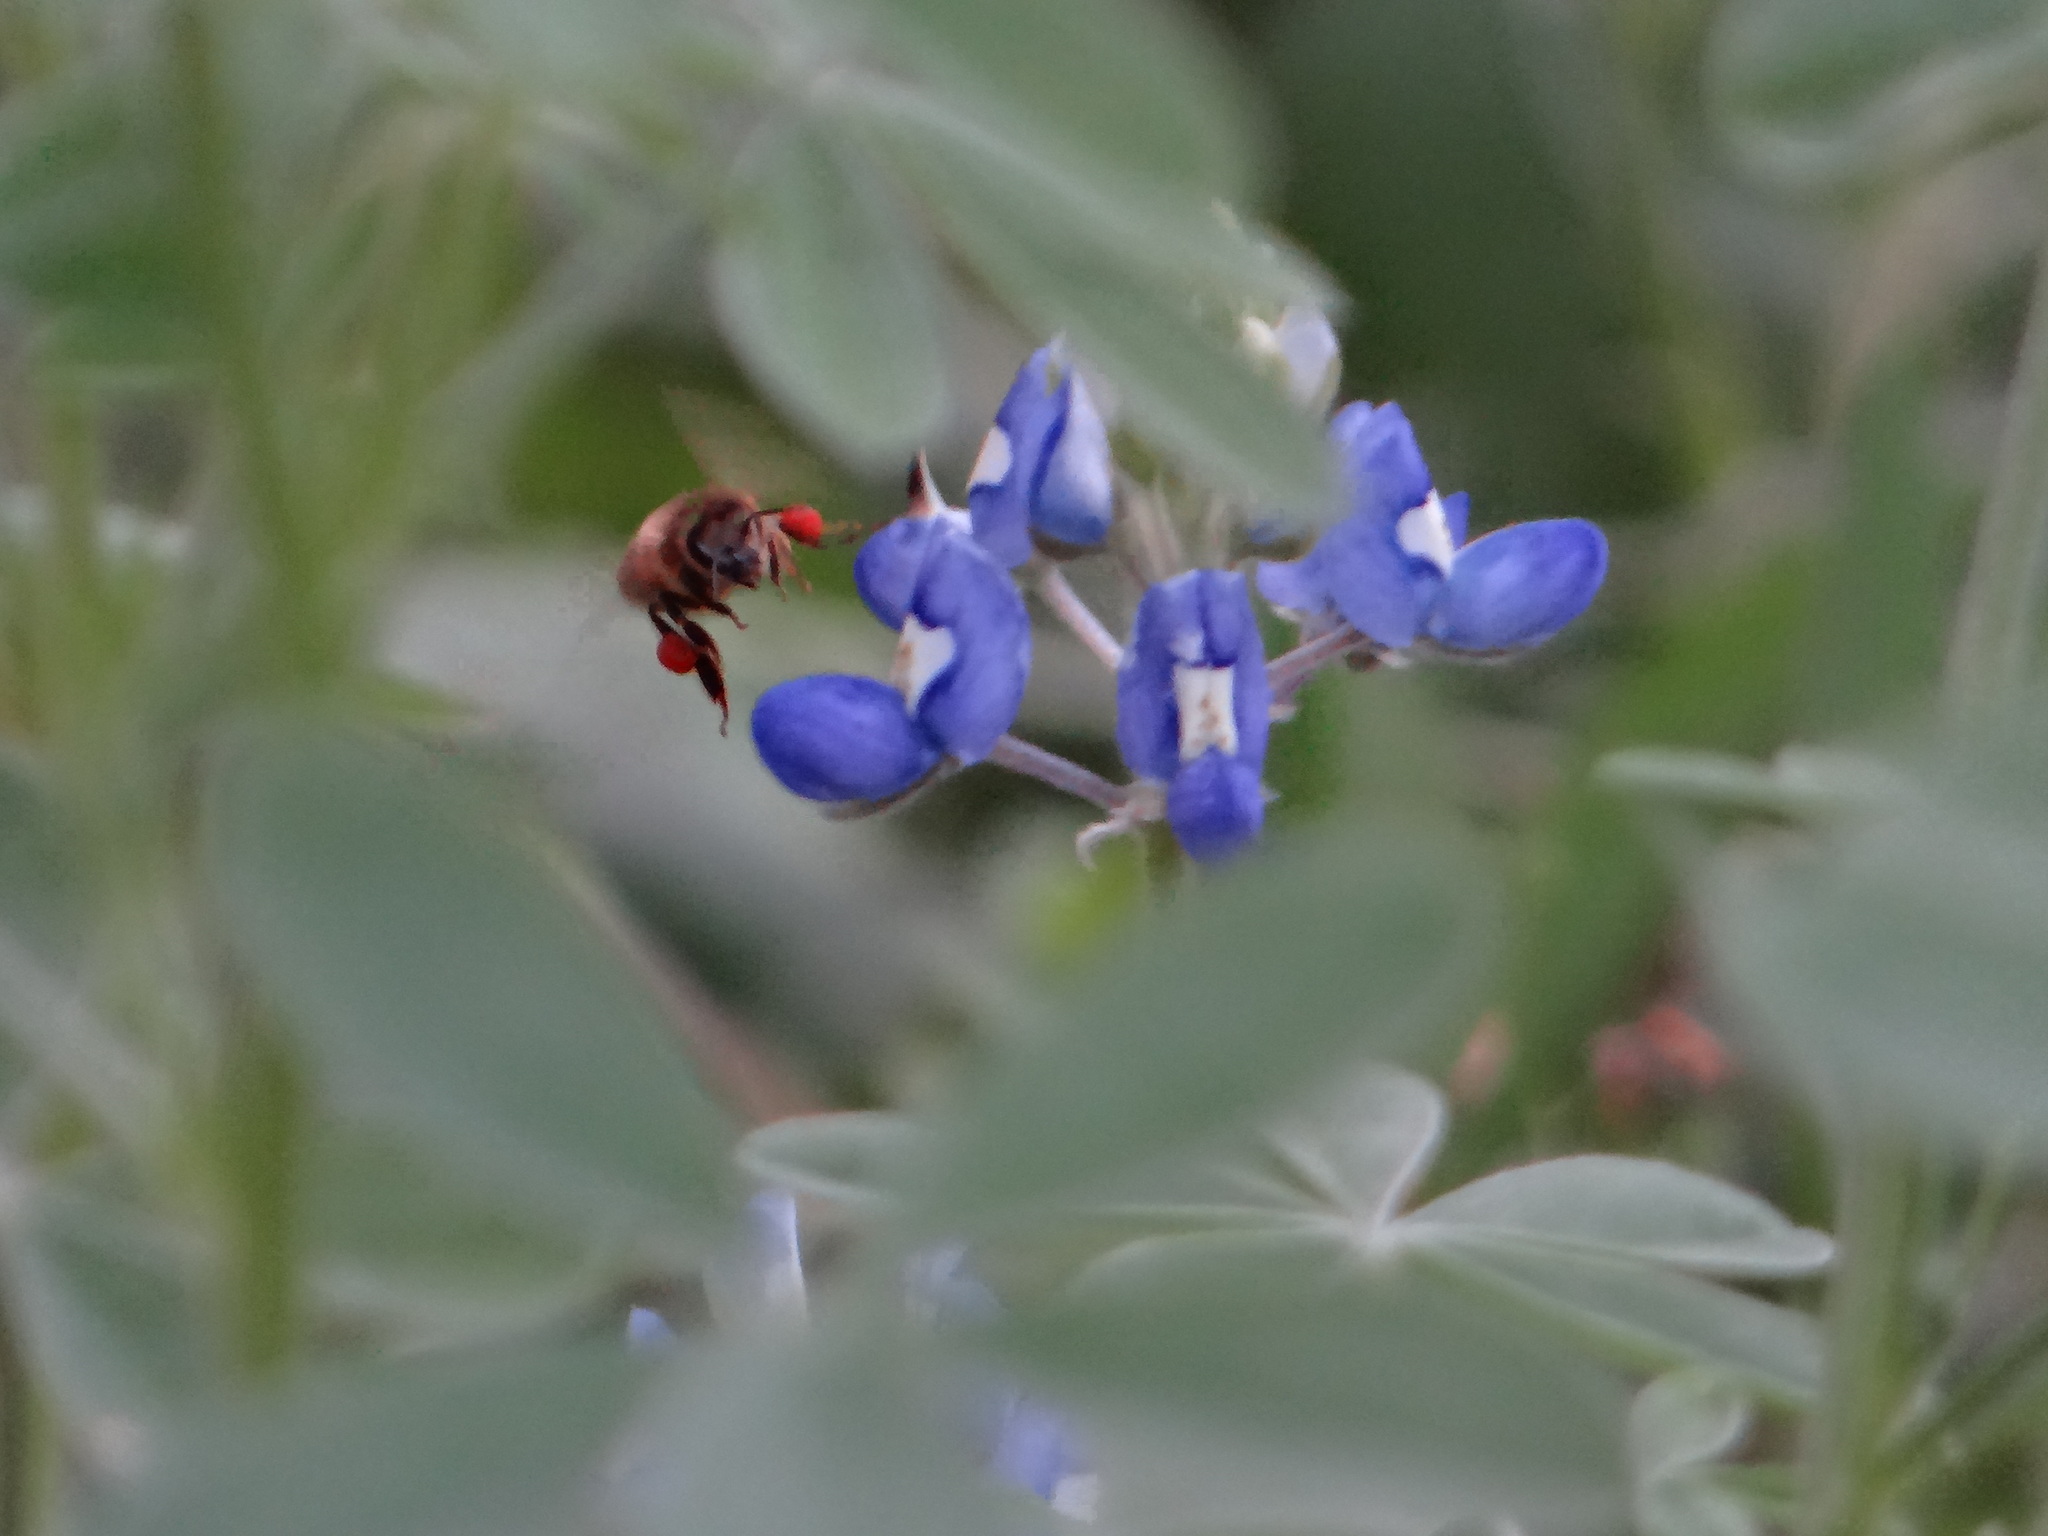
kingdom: Animalia
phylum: Arthropoda
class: Insecta
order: Hymenoptera
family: Apidae
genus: Apis
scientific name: Apis mellifera
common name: Honey bee
